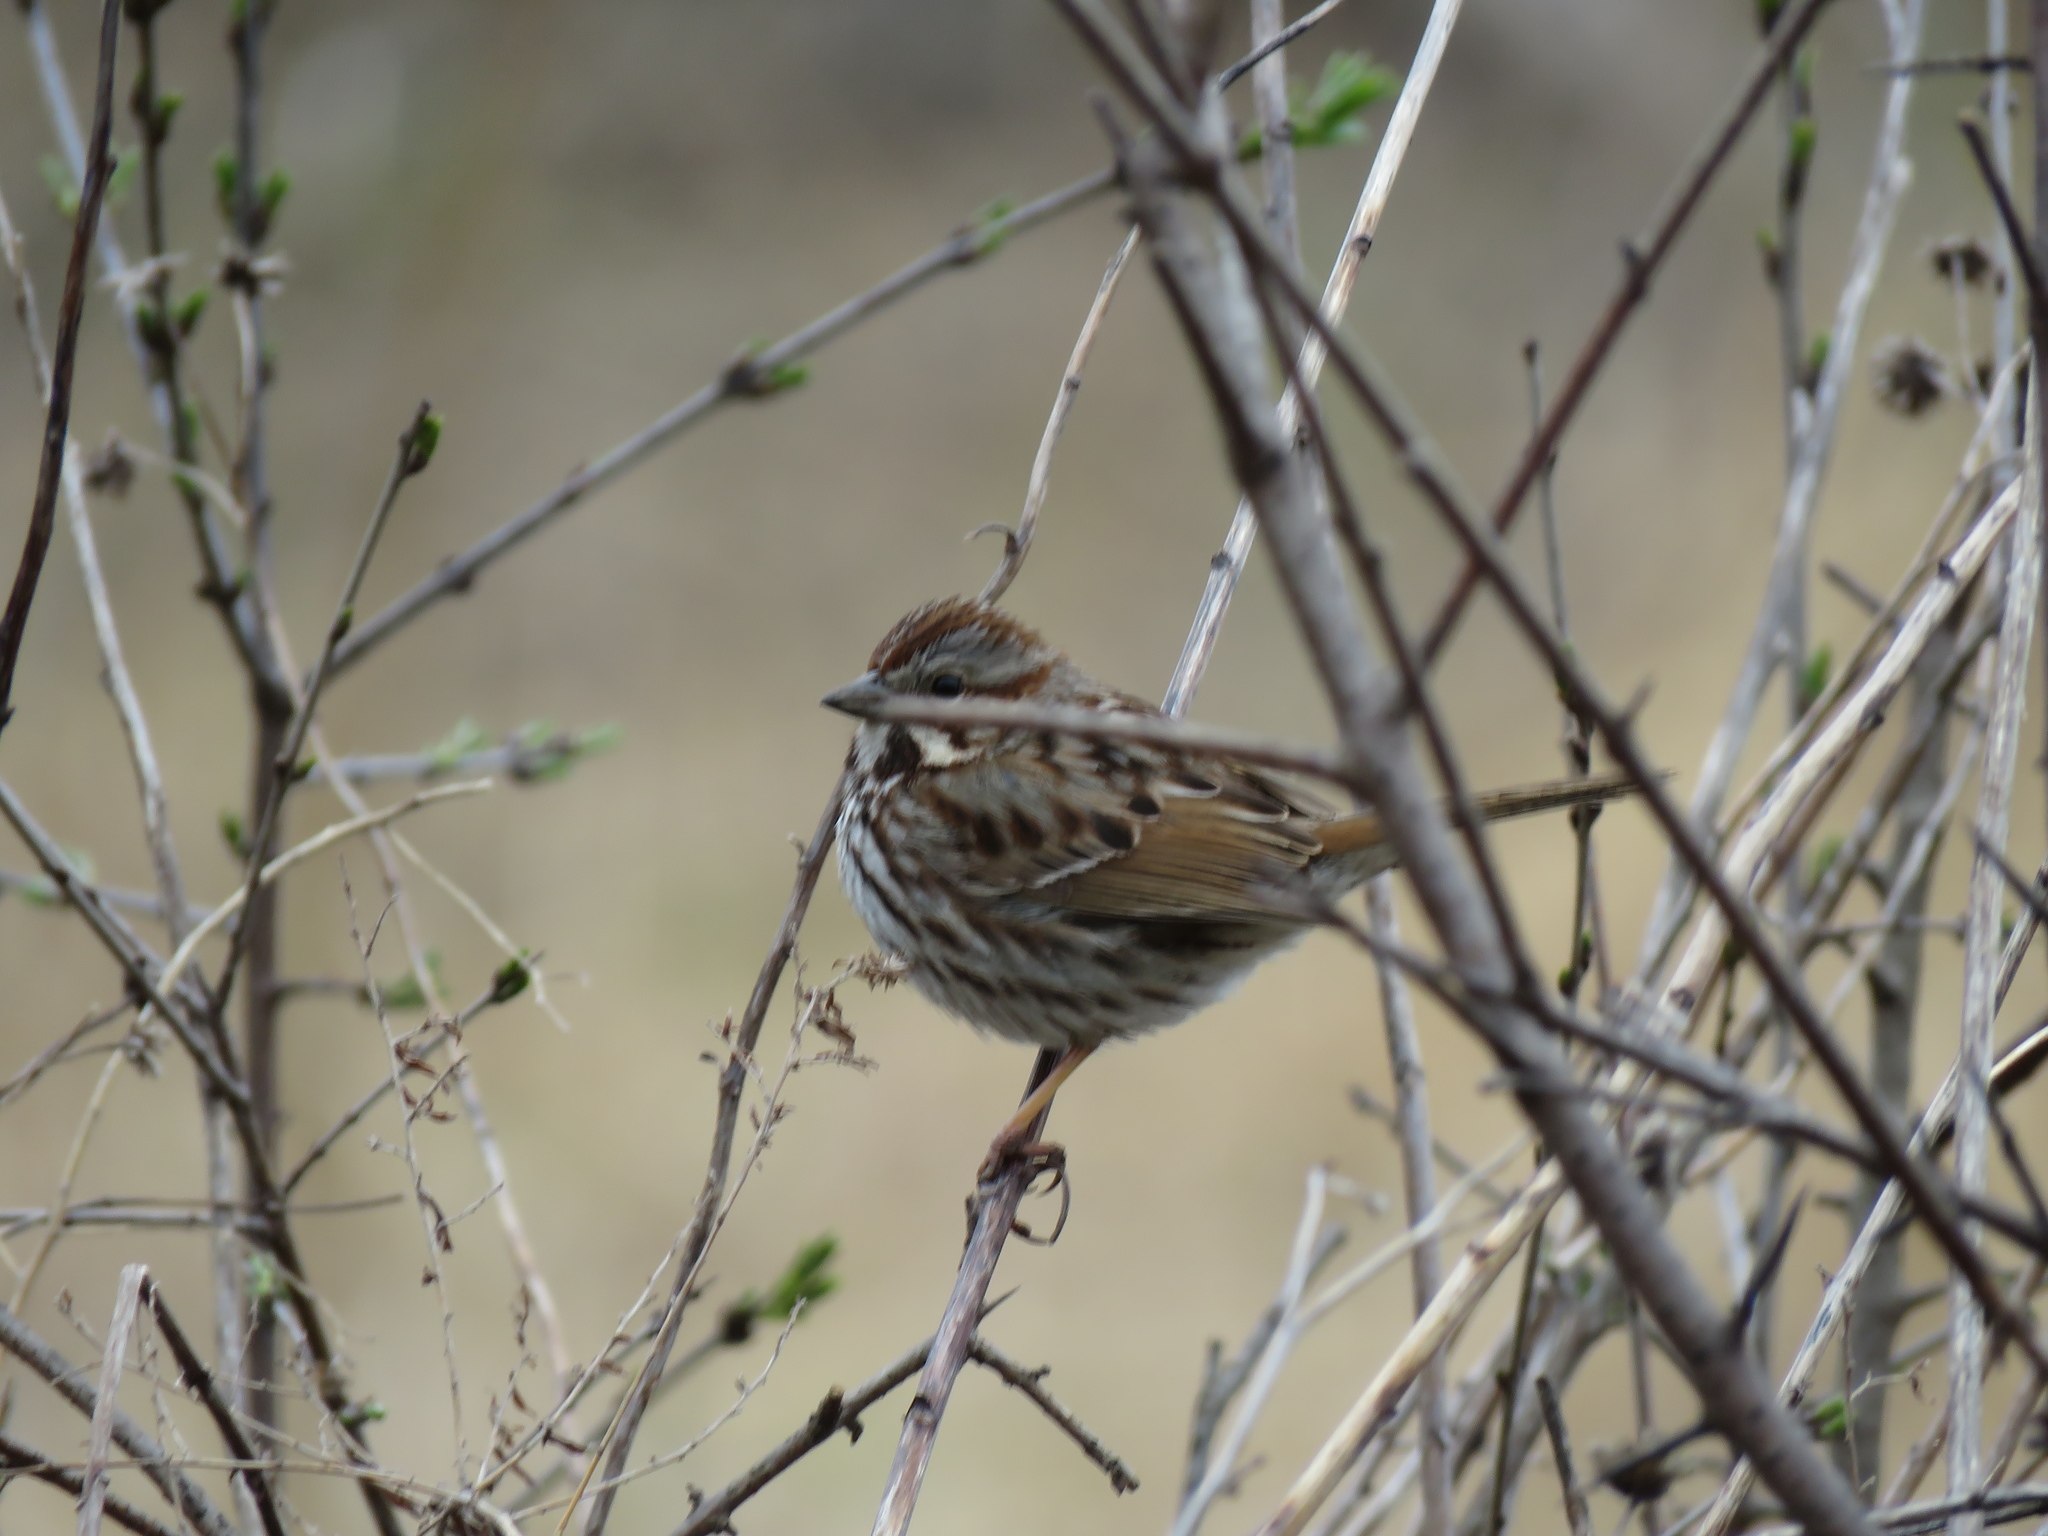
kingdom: Animalia
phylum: Chordata
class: Aves
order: Passeriformes
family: Passerellidae
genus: Melospiza
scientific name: Melospiza melodia
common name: Song sparrow
